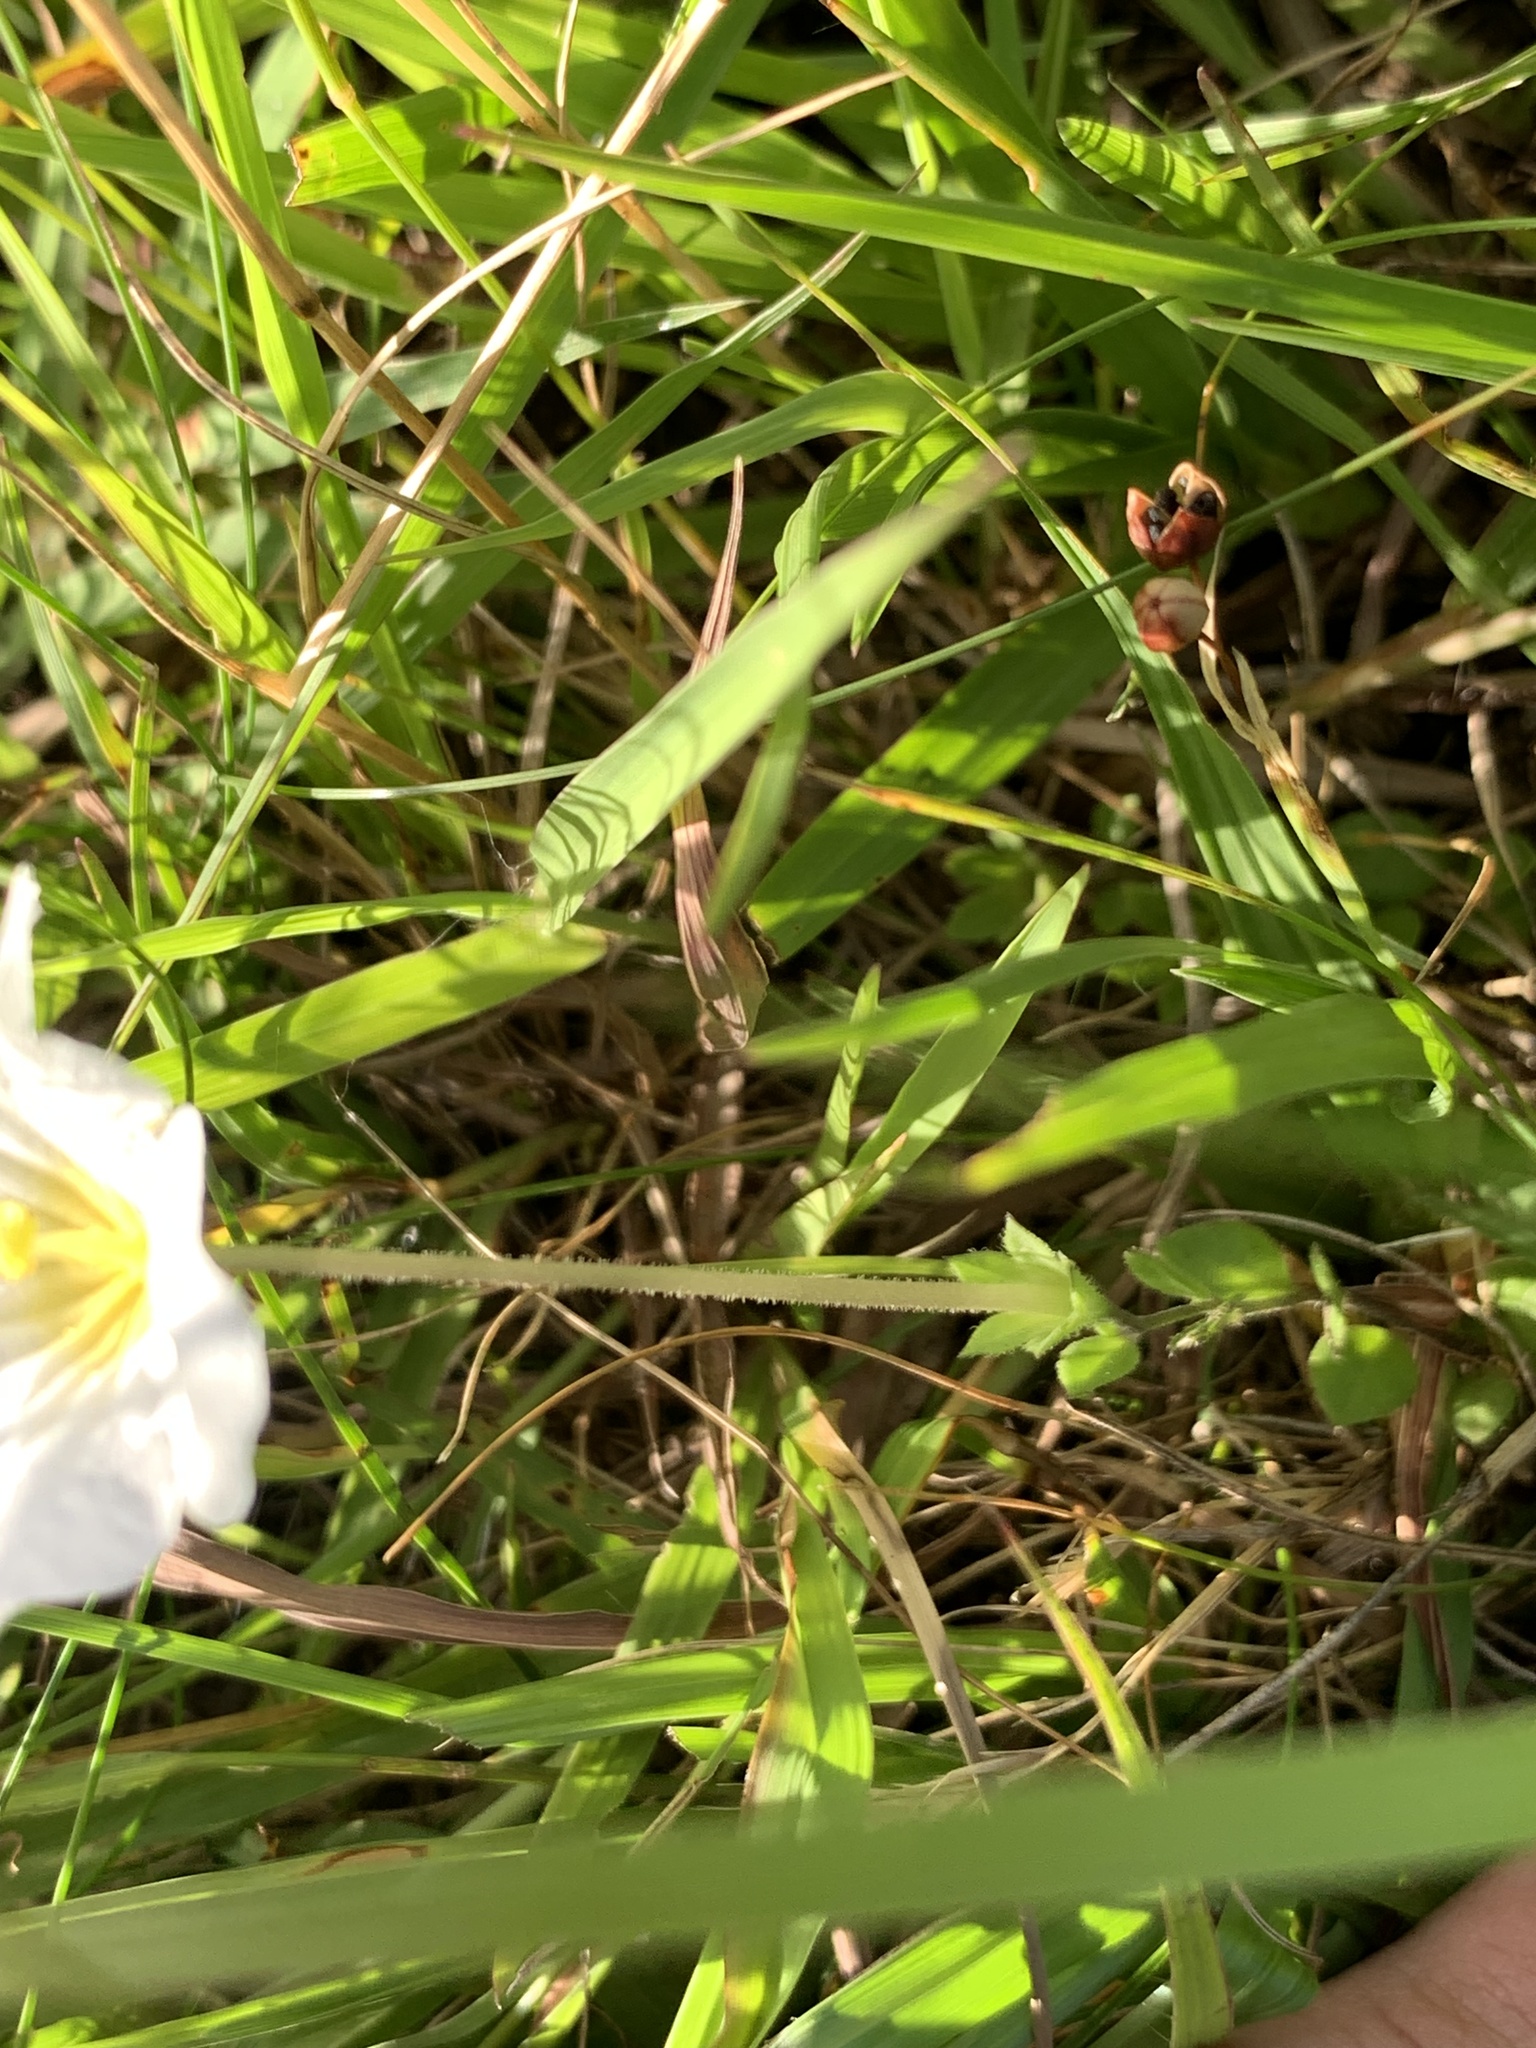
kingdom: Plantae
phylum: Tracheophyta
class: Magnoliopsida
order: Solanales
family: Solanaceae
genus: Nierembergia
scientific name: Nierembergia calycina
